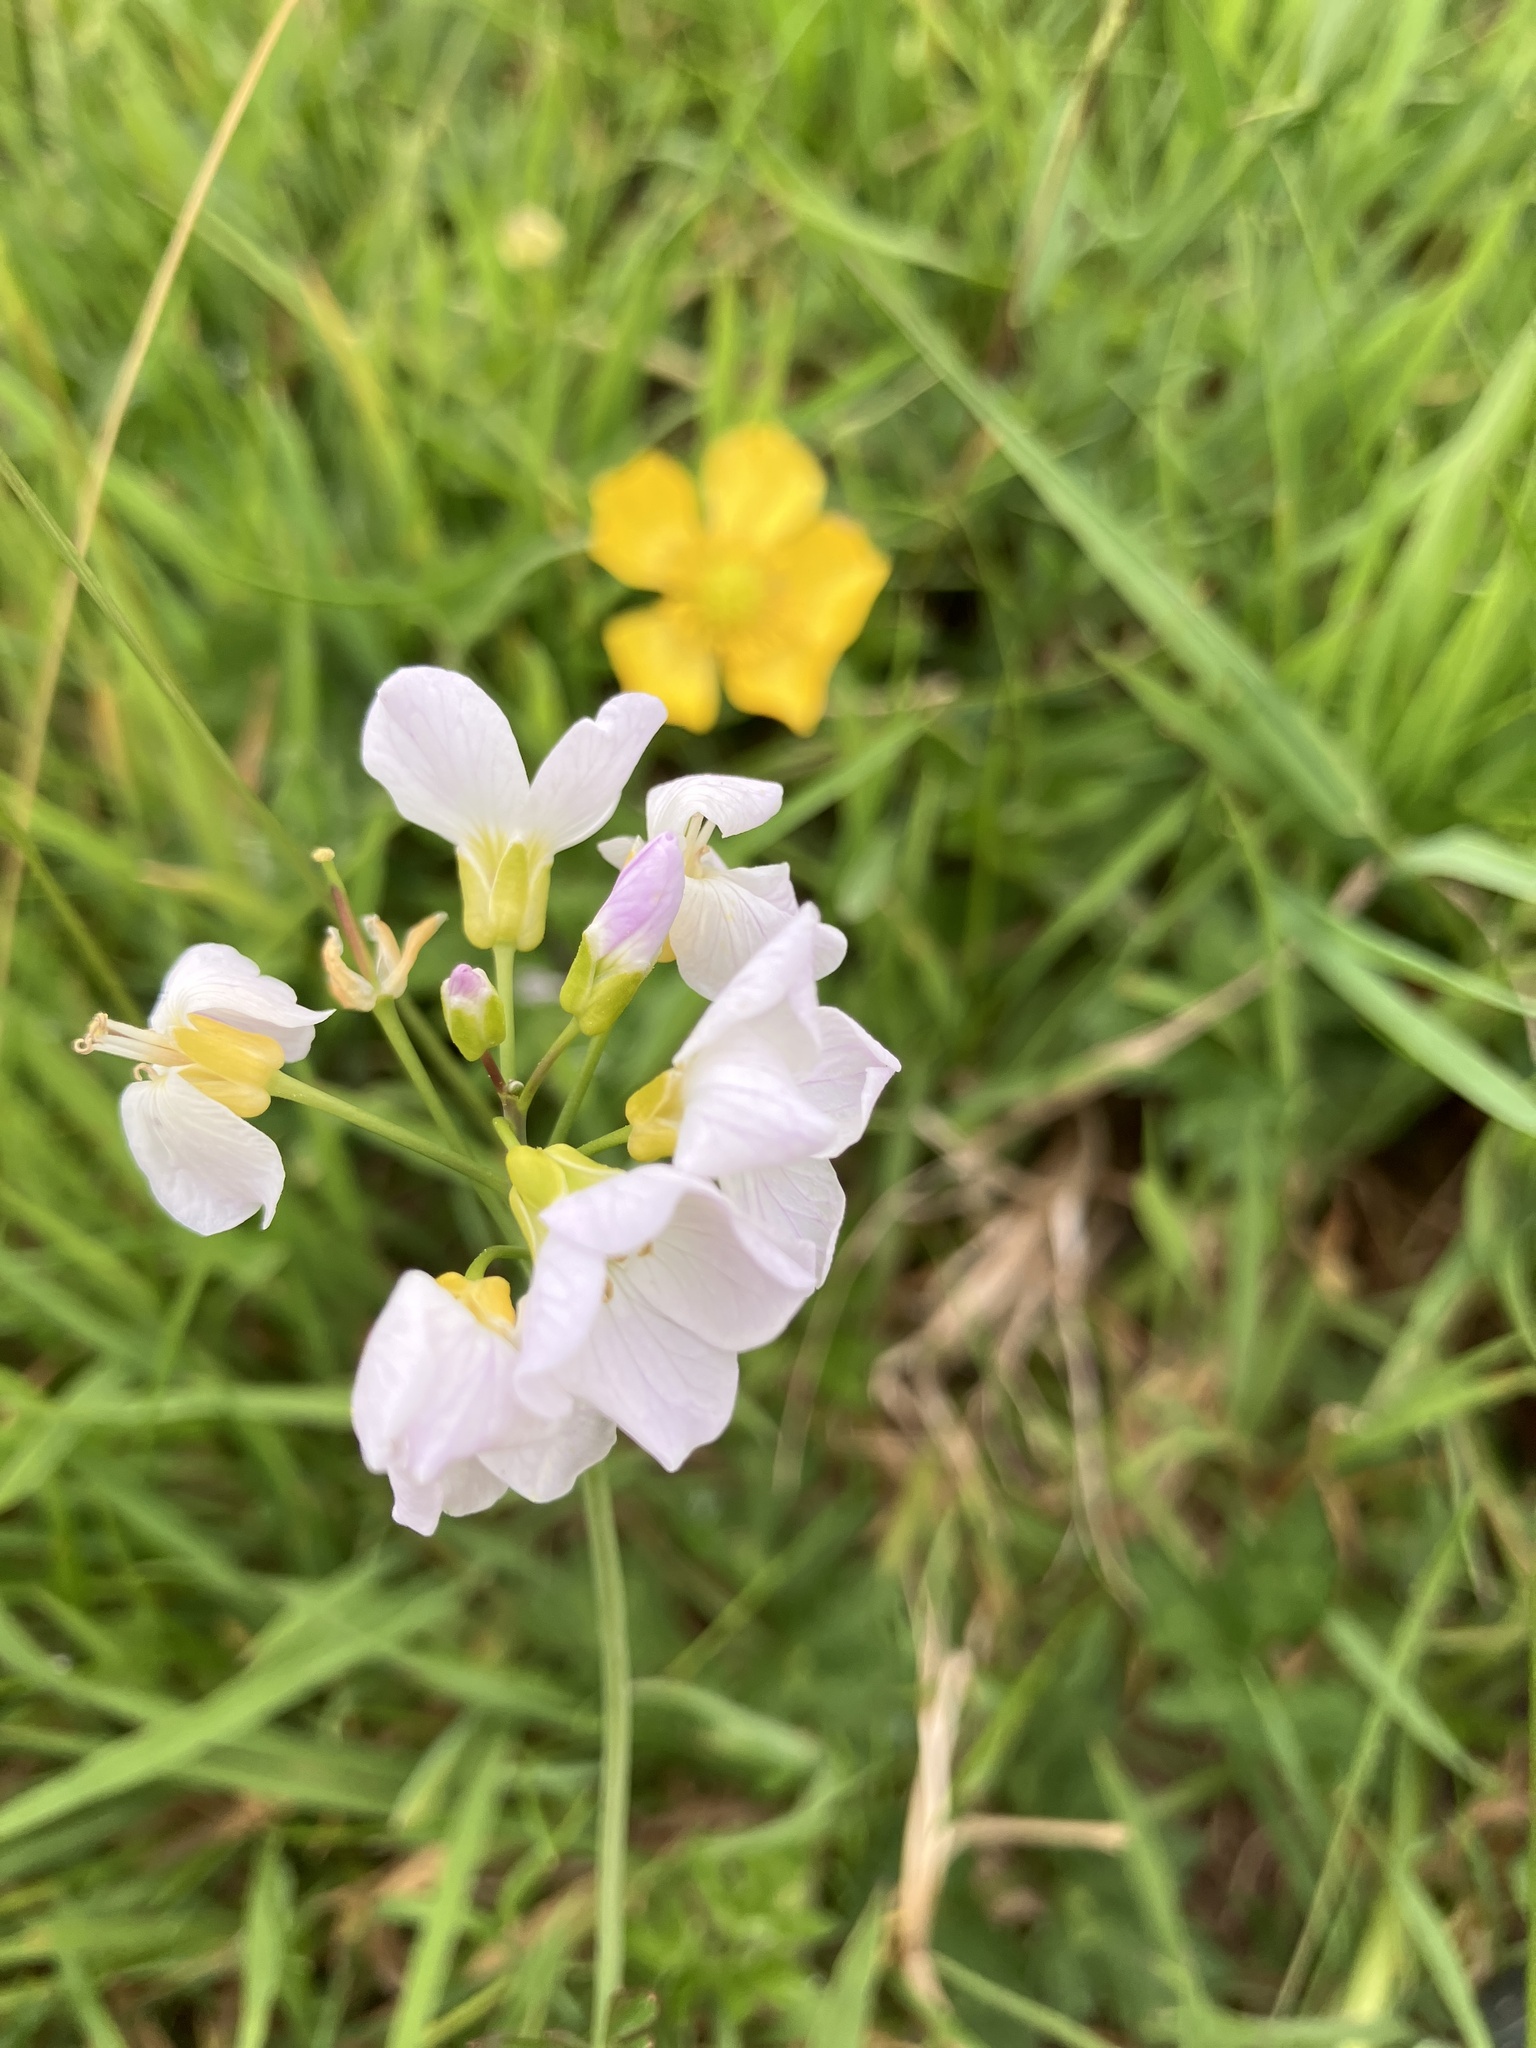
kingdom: Plantae
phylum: Tracheophyta
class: Magnoliopsida
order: Brassicales
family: Brassicaceae
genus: Cardamine
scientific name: Cardamine pratensis
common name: Cuckoo flower
